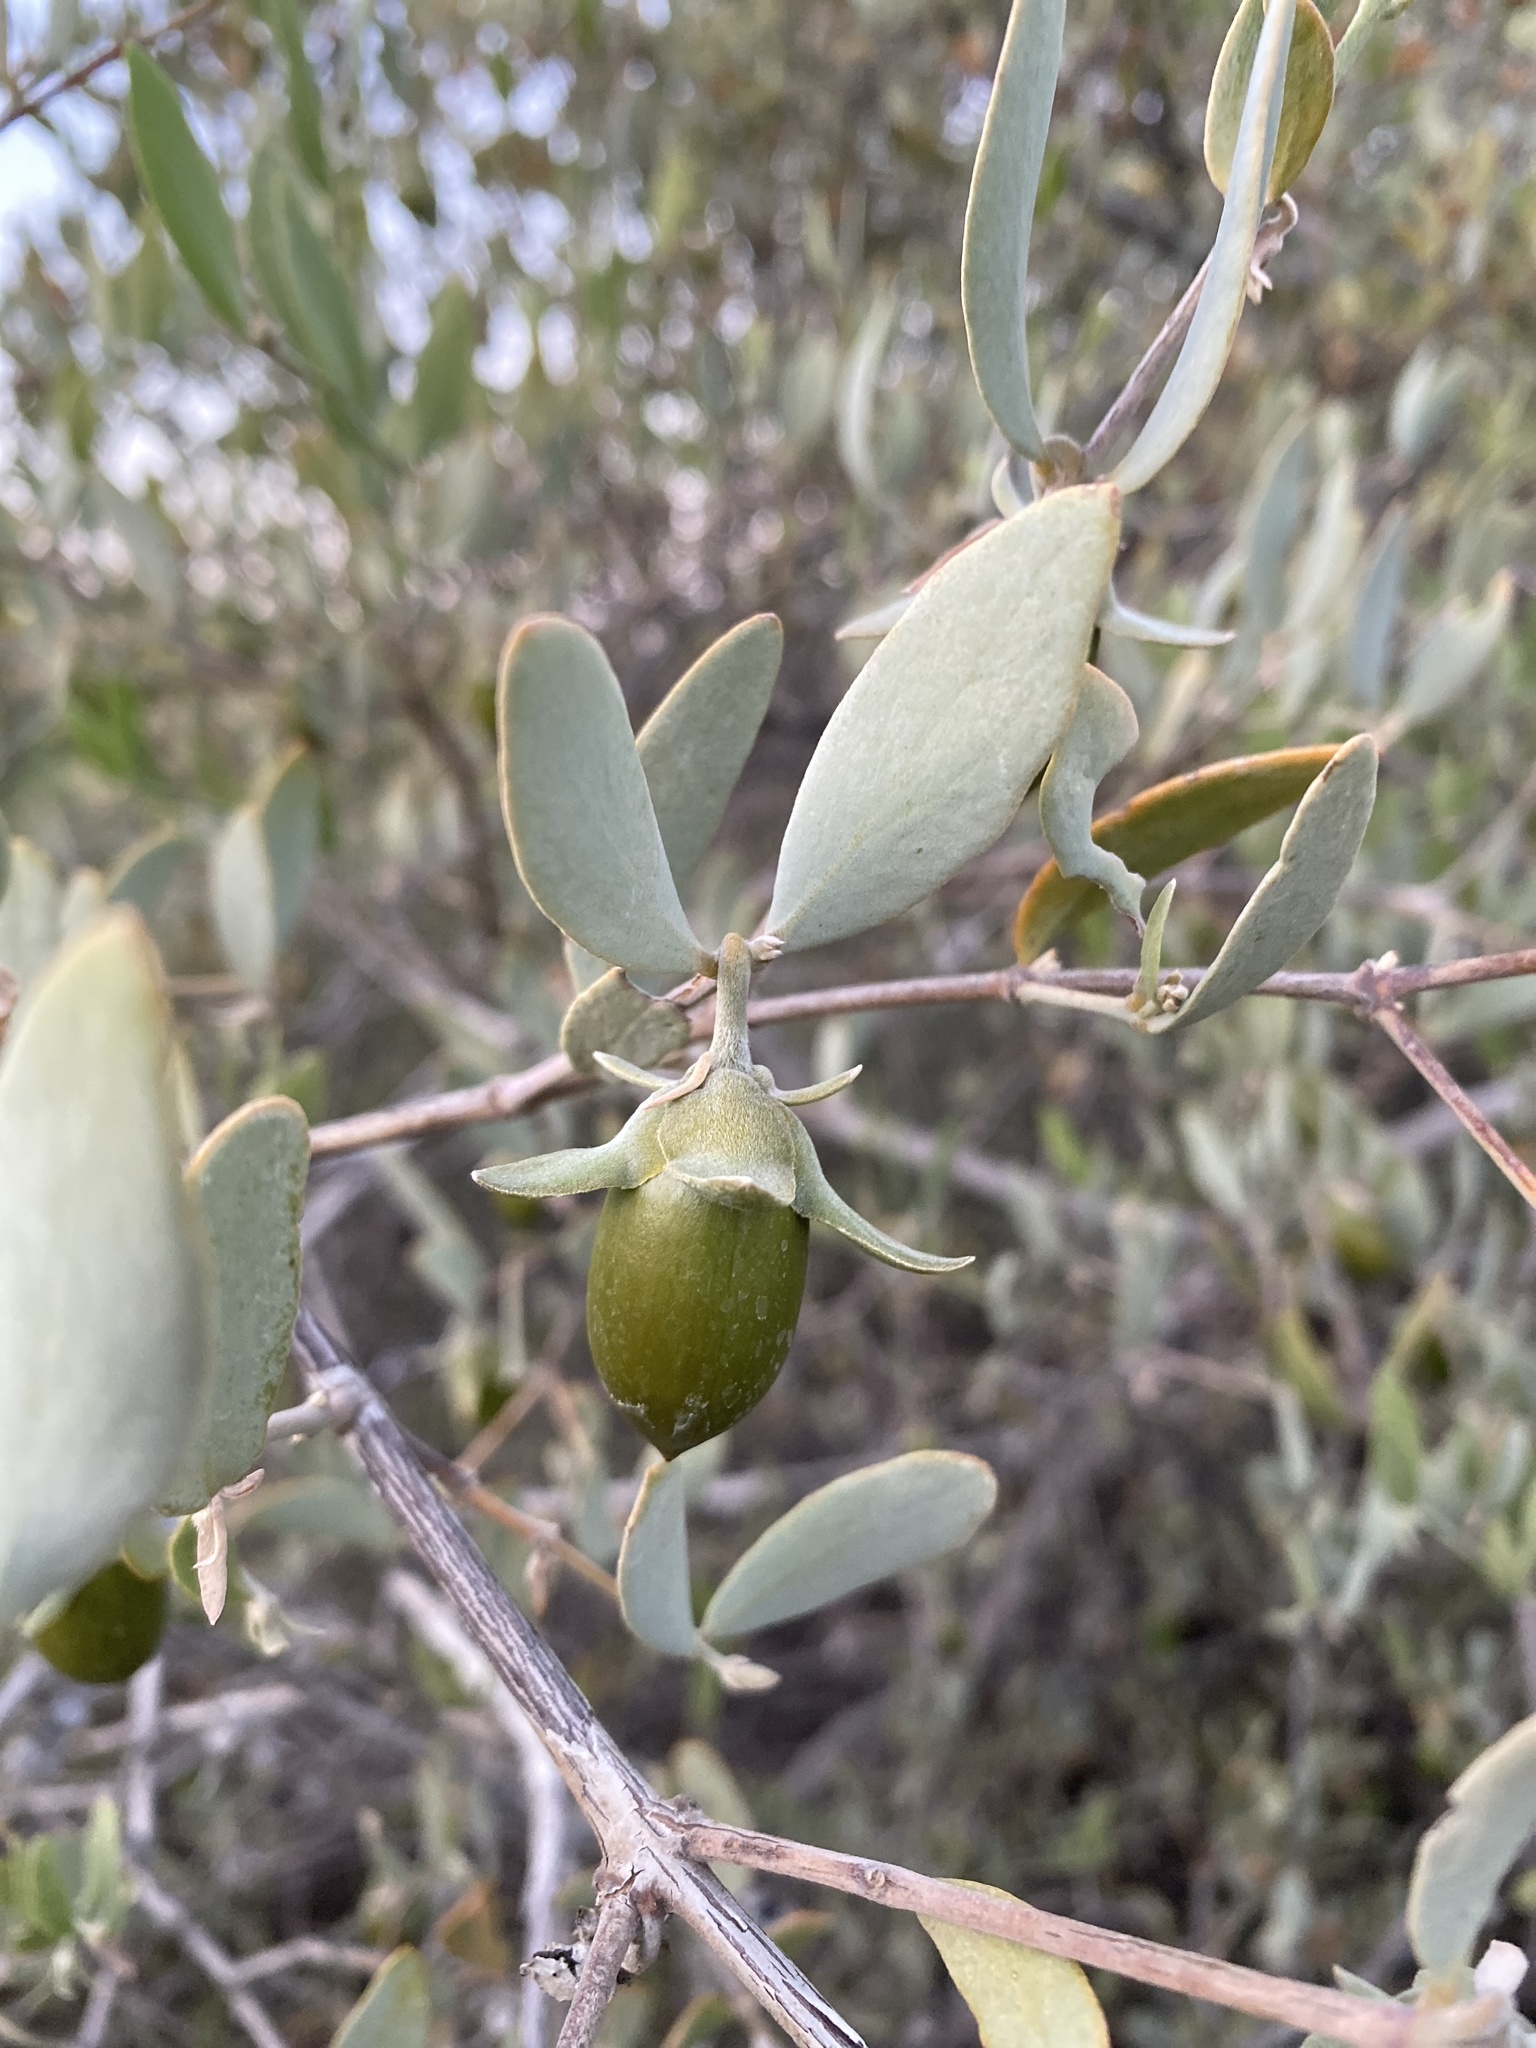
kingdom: Plantae
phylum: Tracheophyta
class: Magnoliopsida
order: Caryophyllales
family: Simmondsiaceae
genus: Simmondsia
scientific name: Simmondsia chinensis
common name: Jojoba
